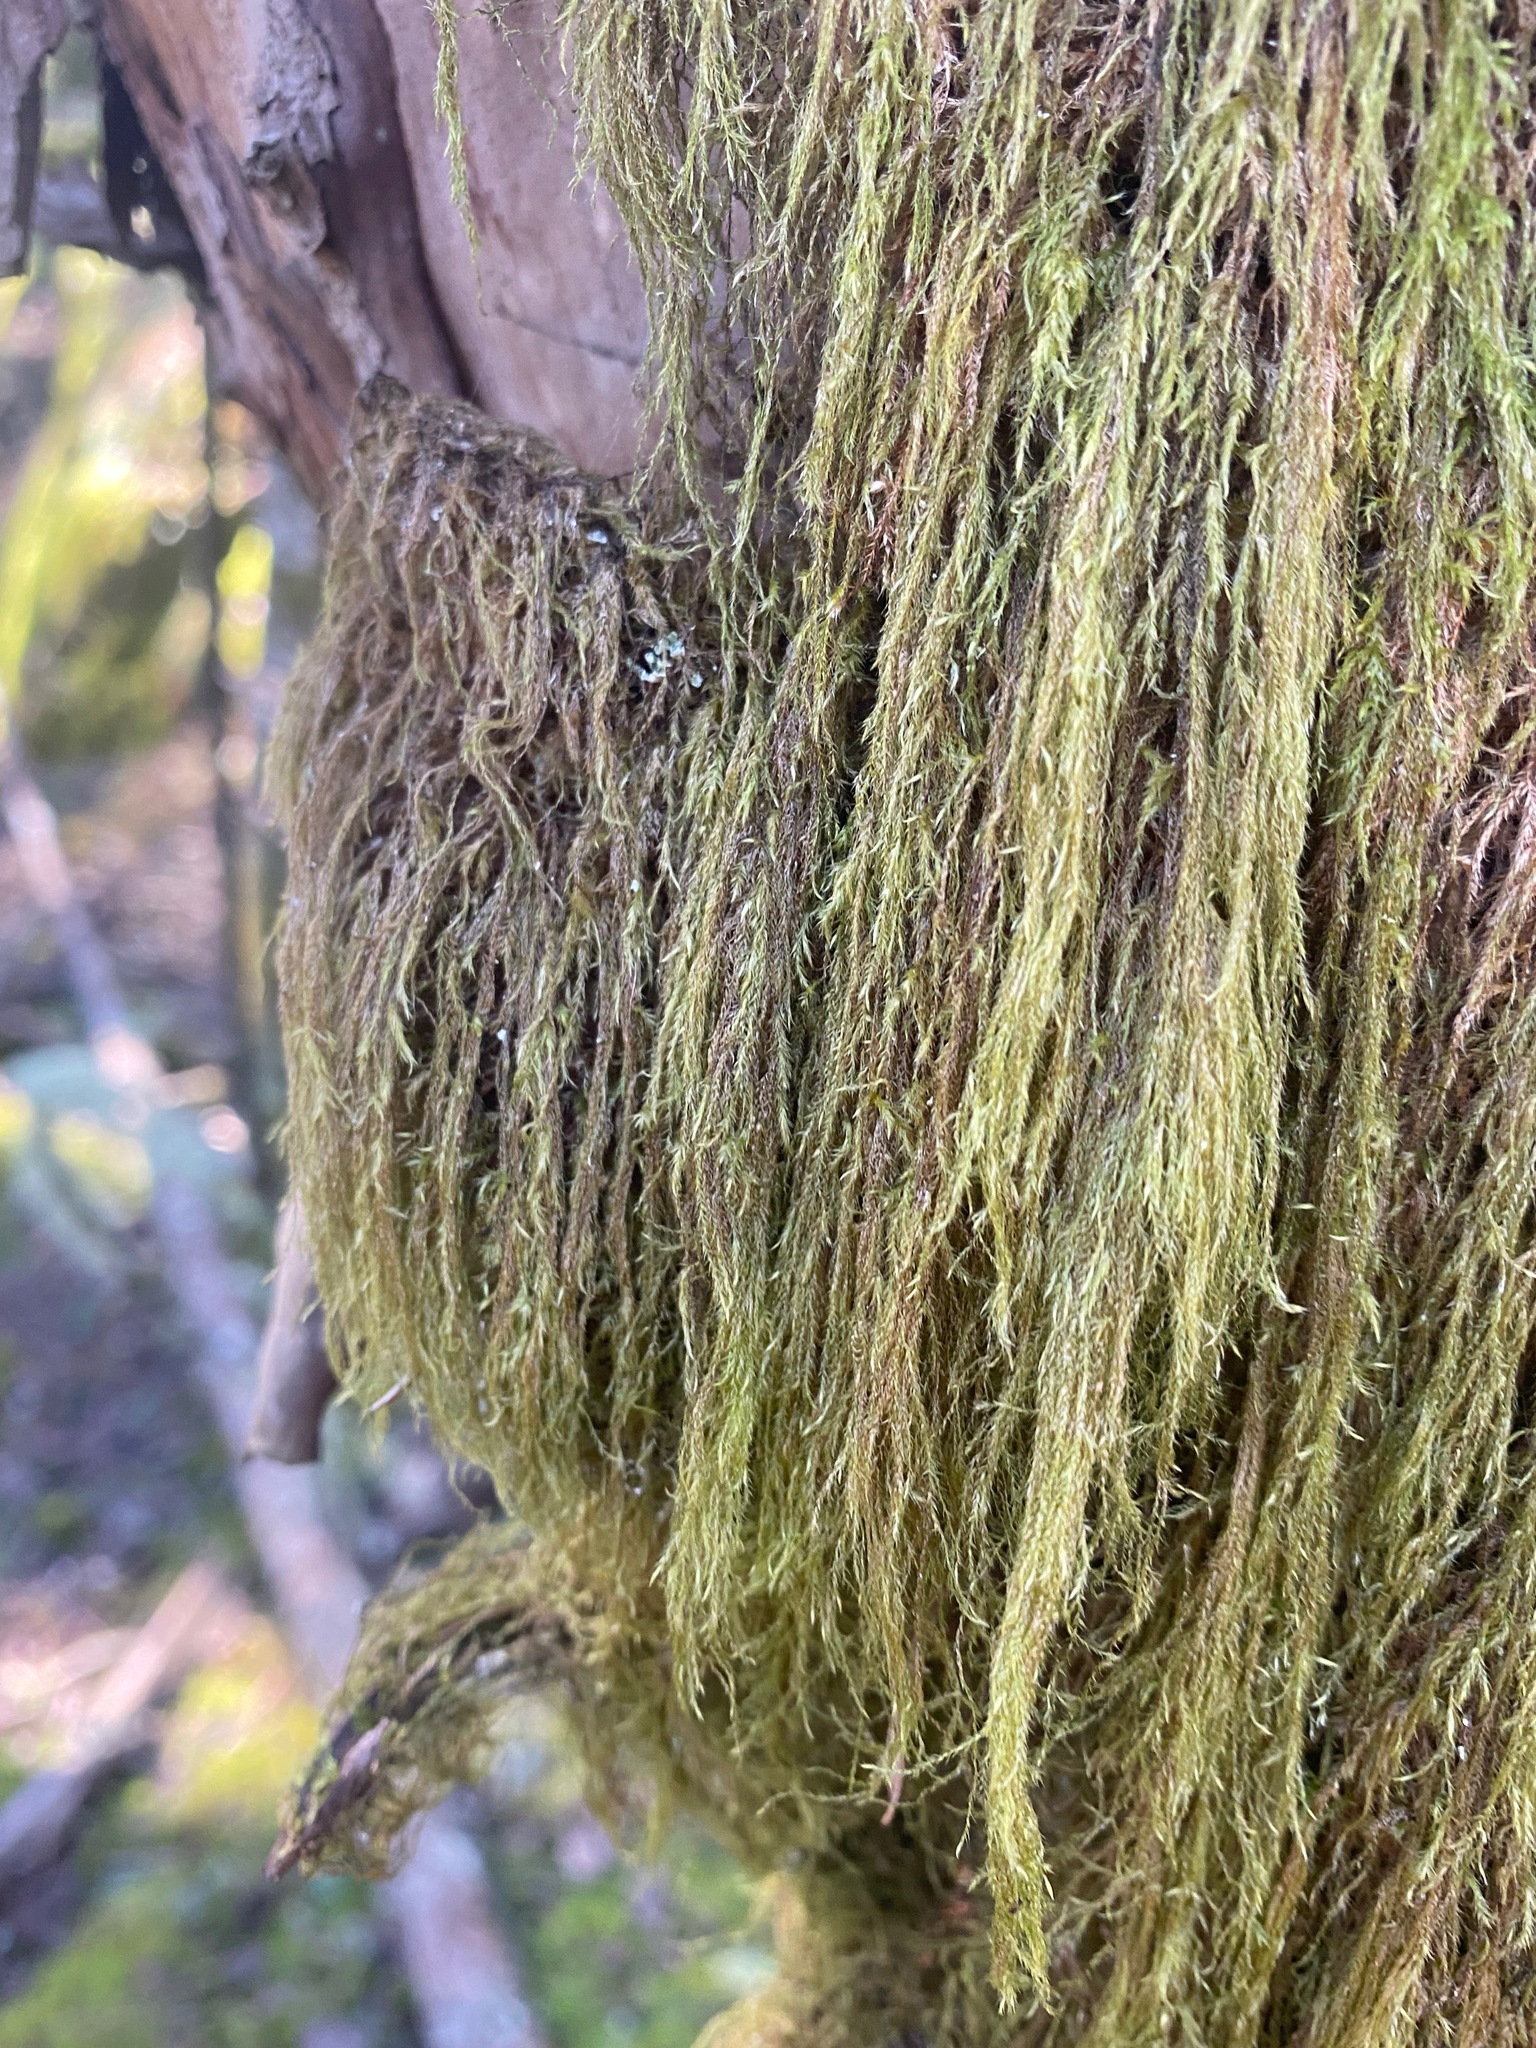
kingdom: Plantae
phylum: Bryophyta
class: Bryopsida
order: Hypnales
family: Lembophyllaceae
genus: Pseudisothecium
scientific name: Pseudisothecium stoloniferum
